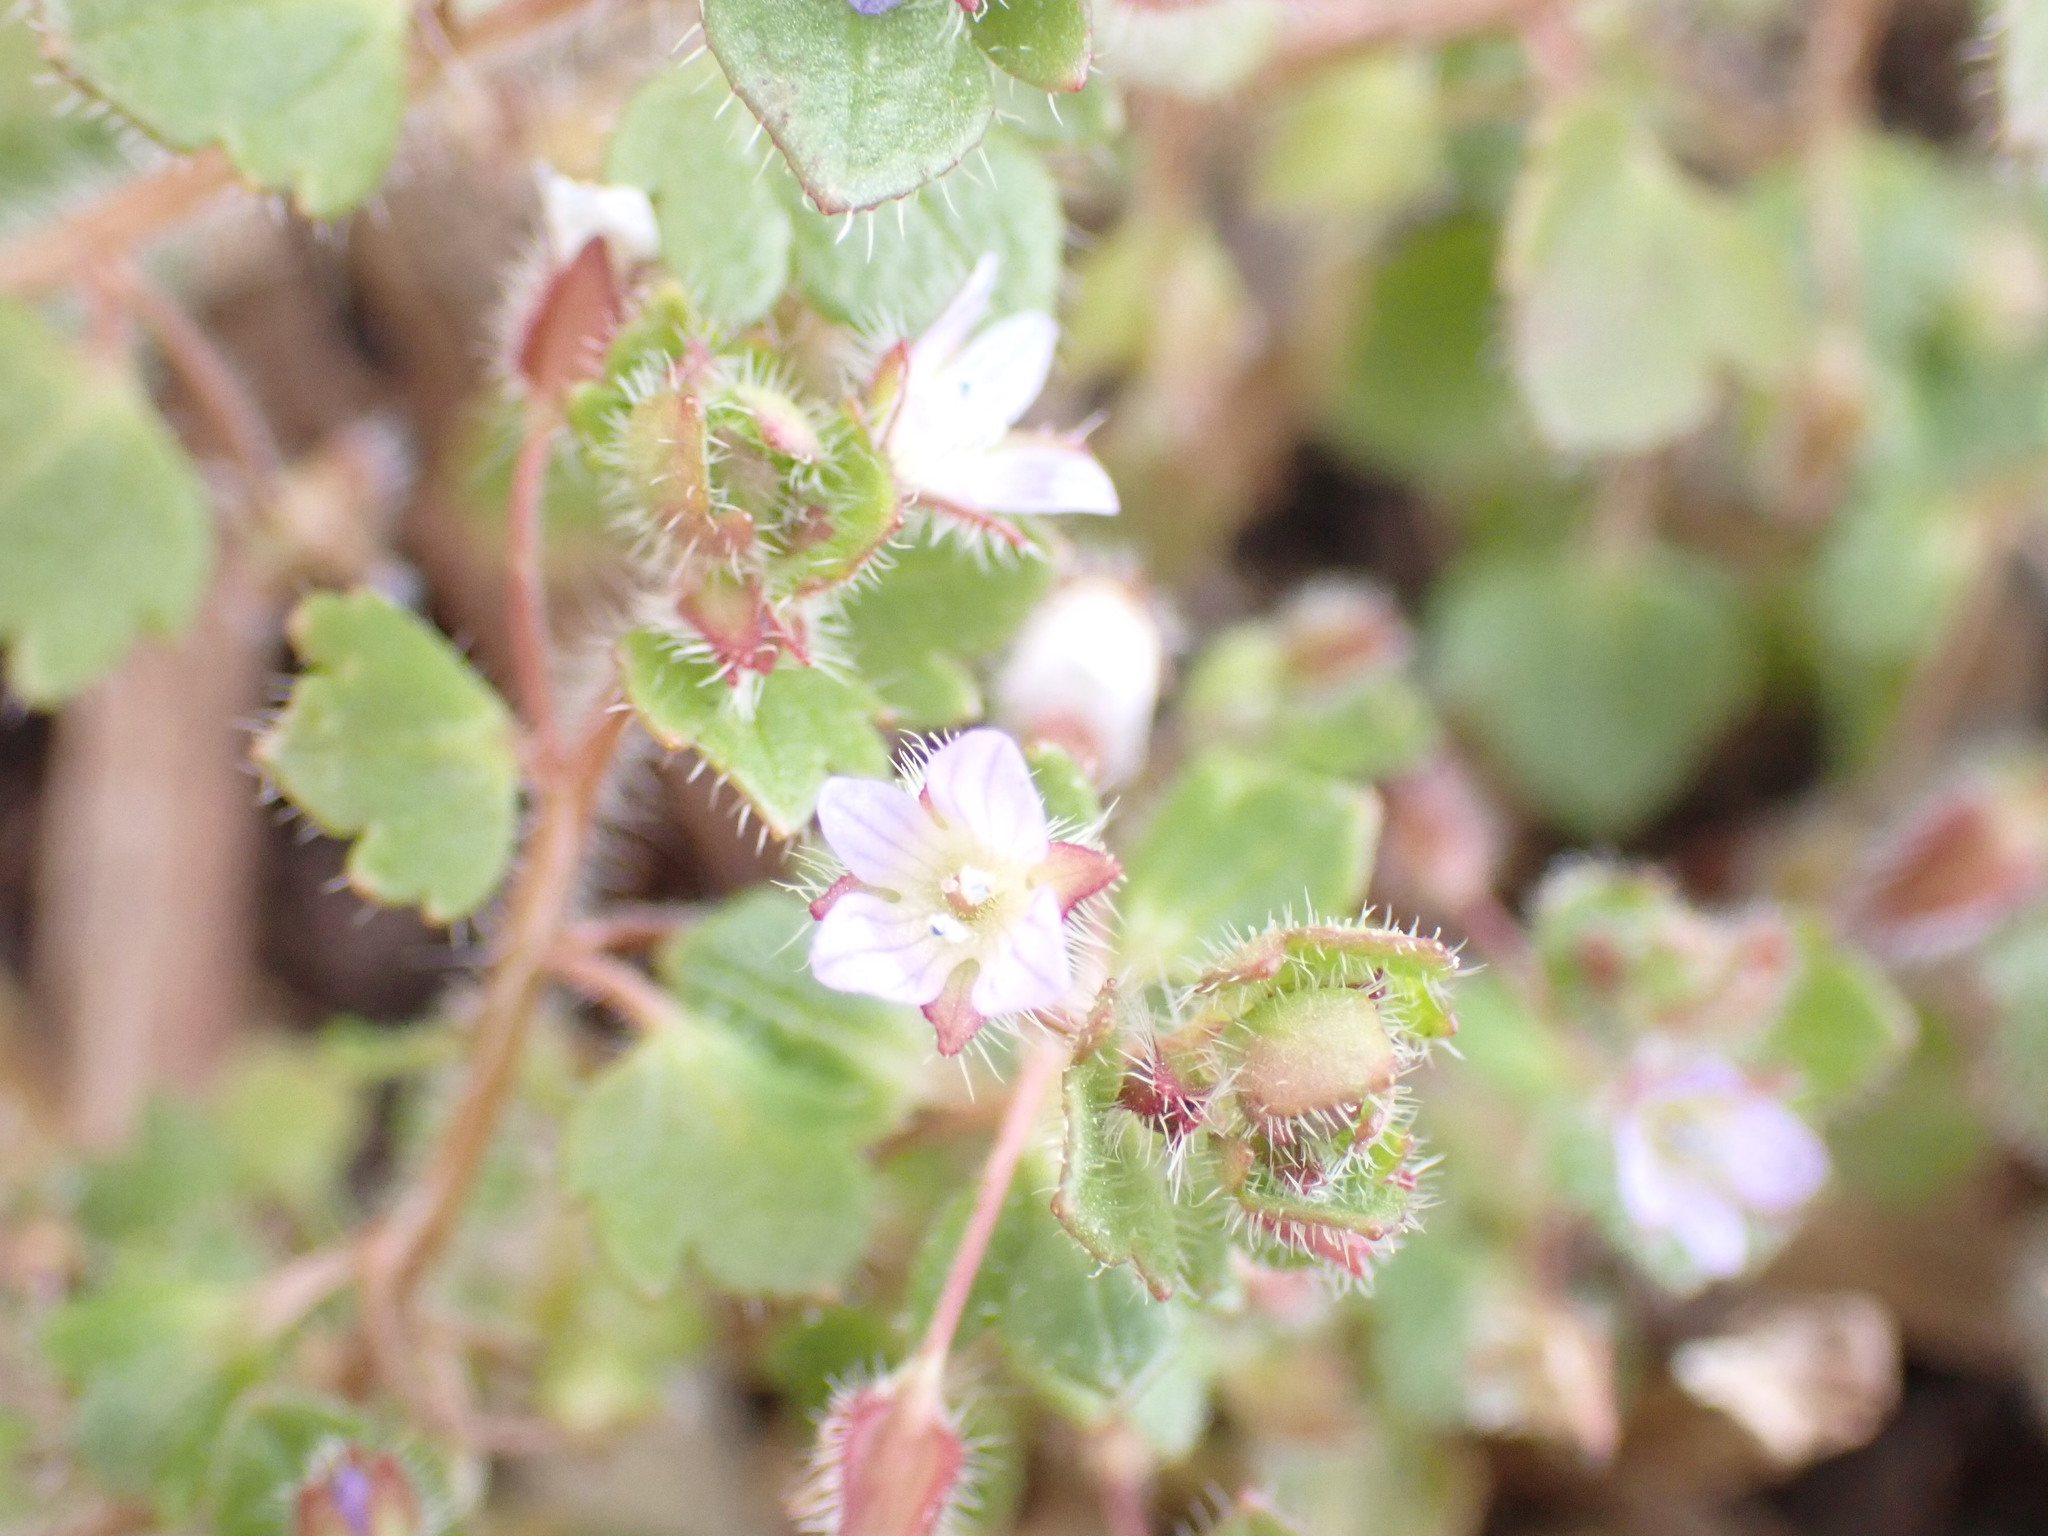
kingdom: Plantae
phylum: Tracheophyta
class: Magnoliopsida
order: Lamiales
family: Plantaginaceae
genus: Veronica
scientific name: Veronica sublobata
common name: False ivy-leaved speedwell
